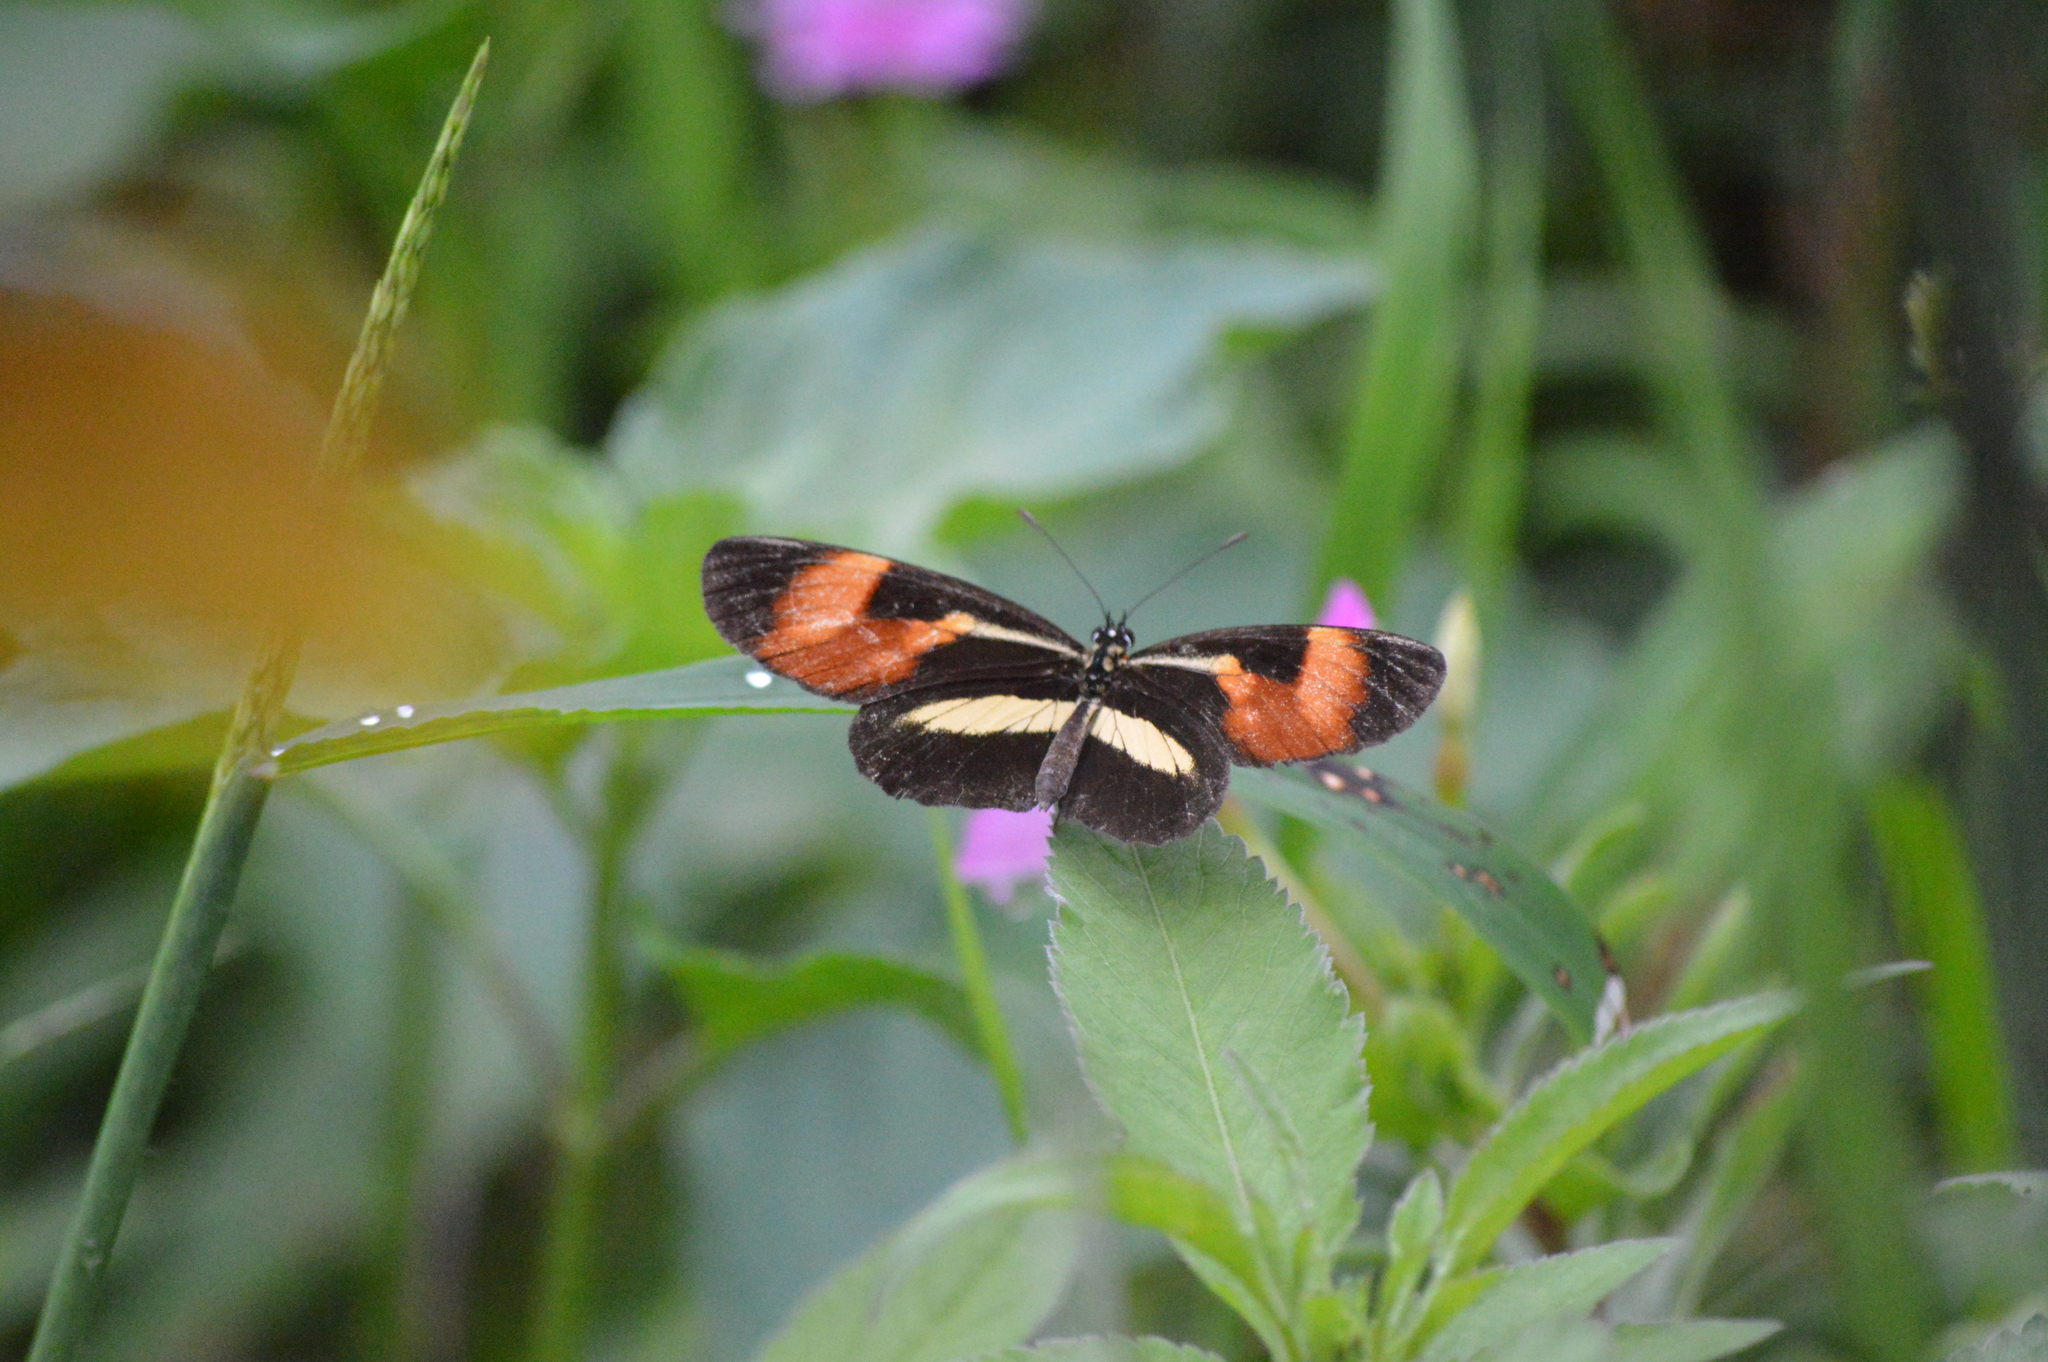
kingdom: Animalia
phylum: Arthropoda
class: Insecta
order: Lepidoptera
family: Nymphalidae
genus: Eresia
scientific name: Eresia lansdorfi
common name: Lansdorf's crescent
